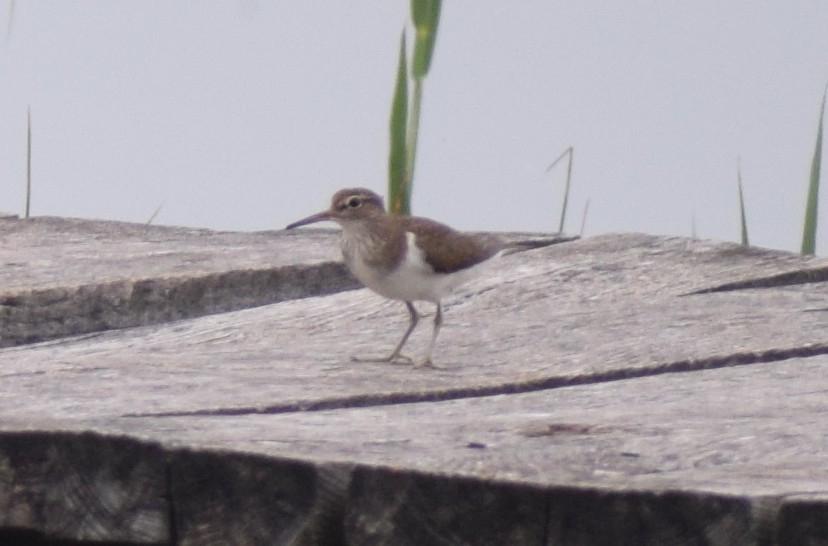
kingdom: Animalia
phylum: Chordata
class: Aves
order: Charadriiformes
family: Scolopacidae
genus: Actitis
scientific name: Actitis hypoleucos
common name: Common sandpiper
